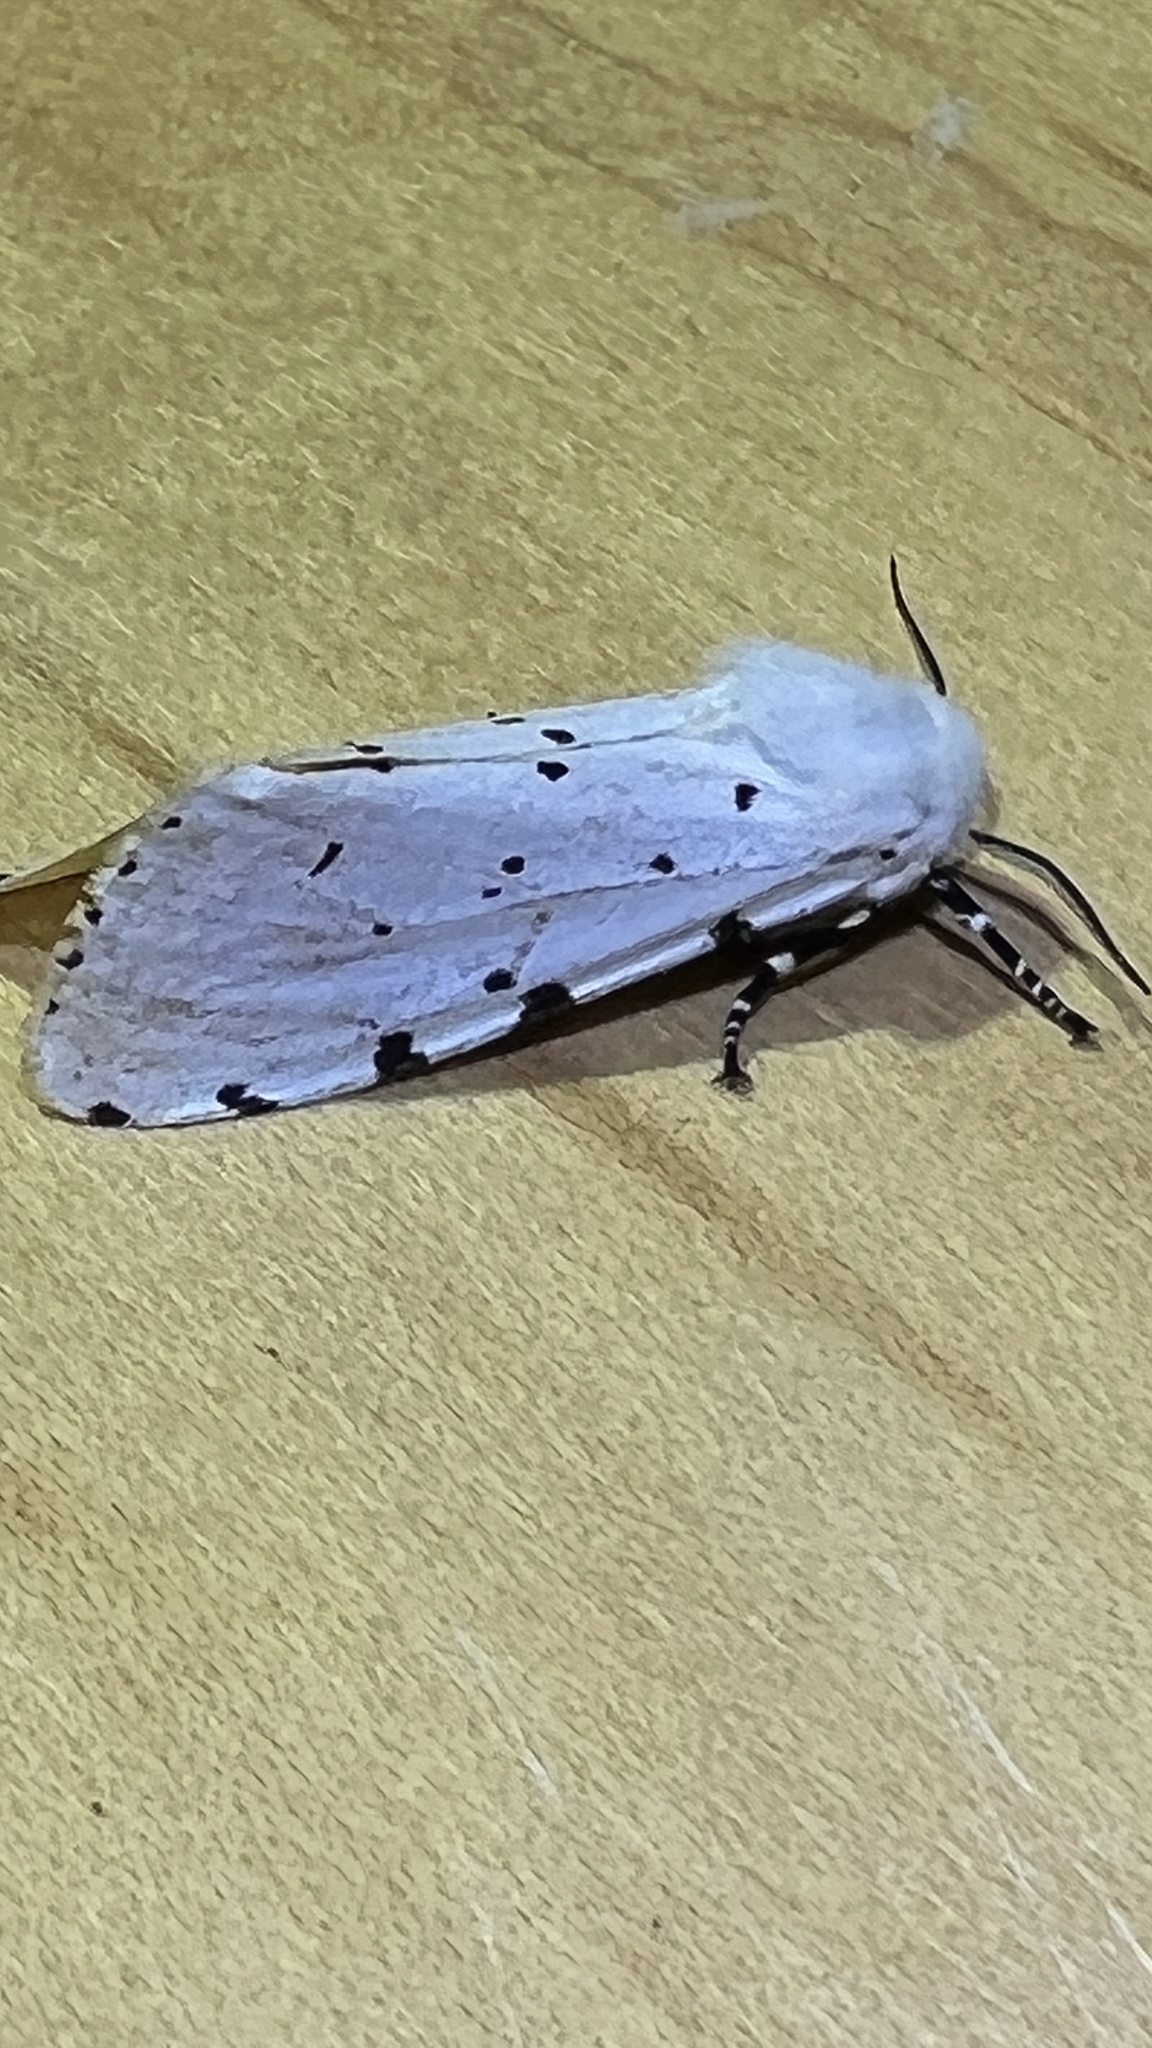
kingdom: Animalia
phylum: Arthropoda
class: Insecta
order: Lepidoptera
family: Erebidae
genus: Estigmene
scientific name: Estigmene acrea
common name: Salt marsh moth
